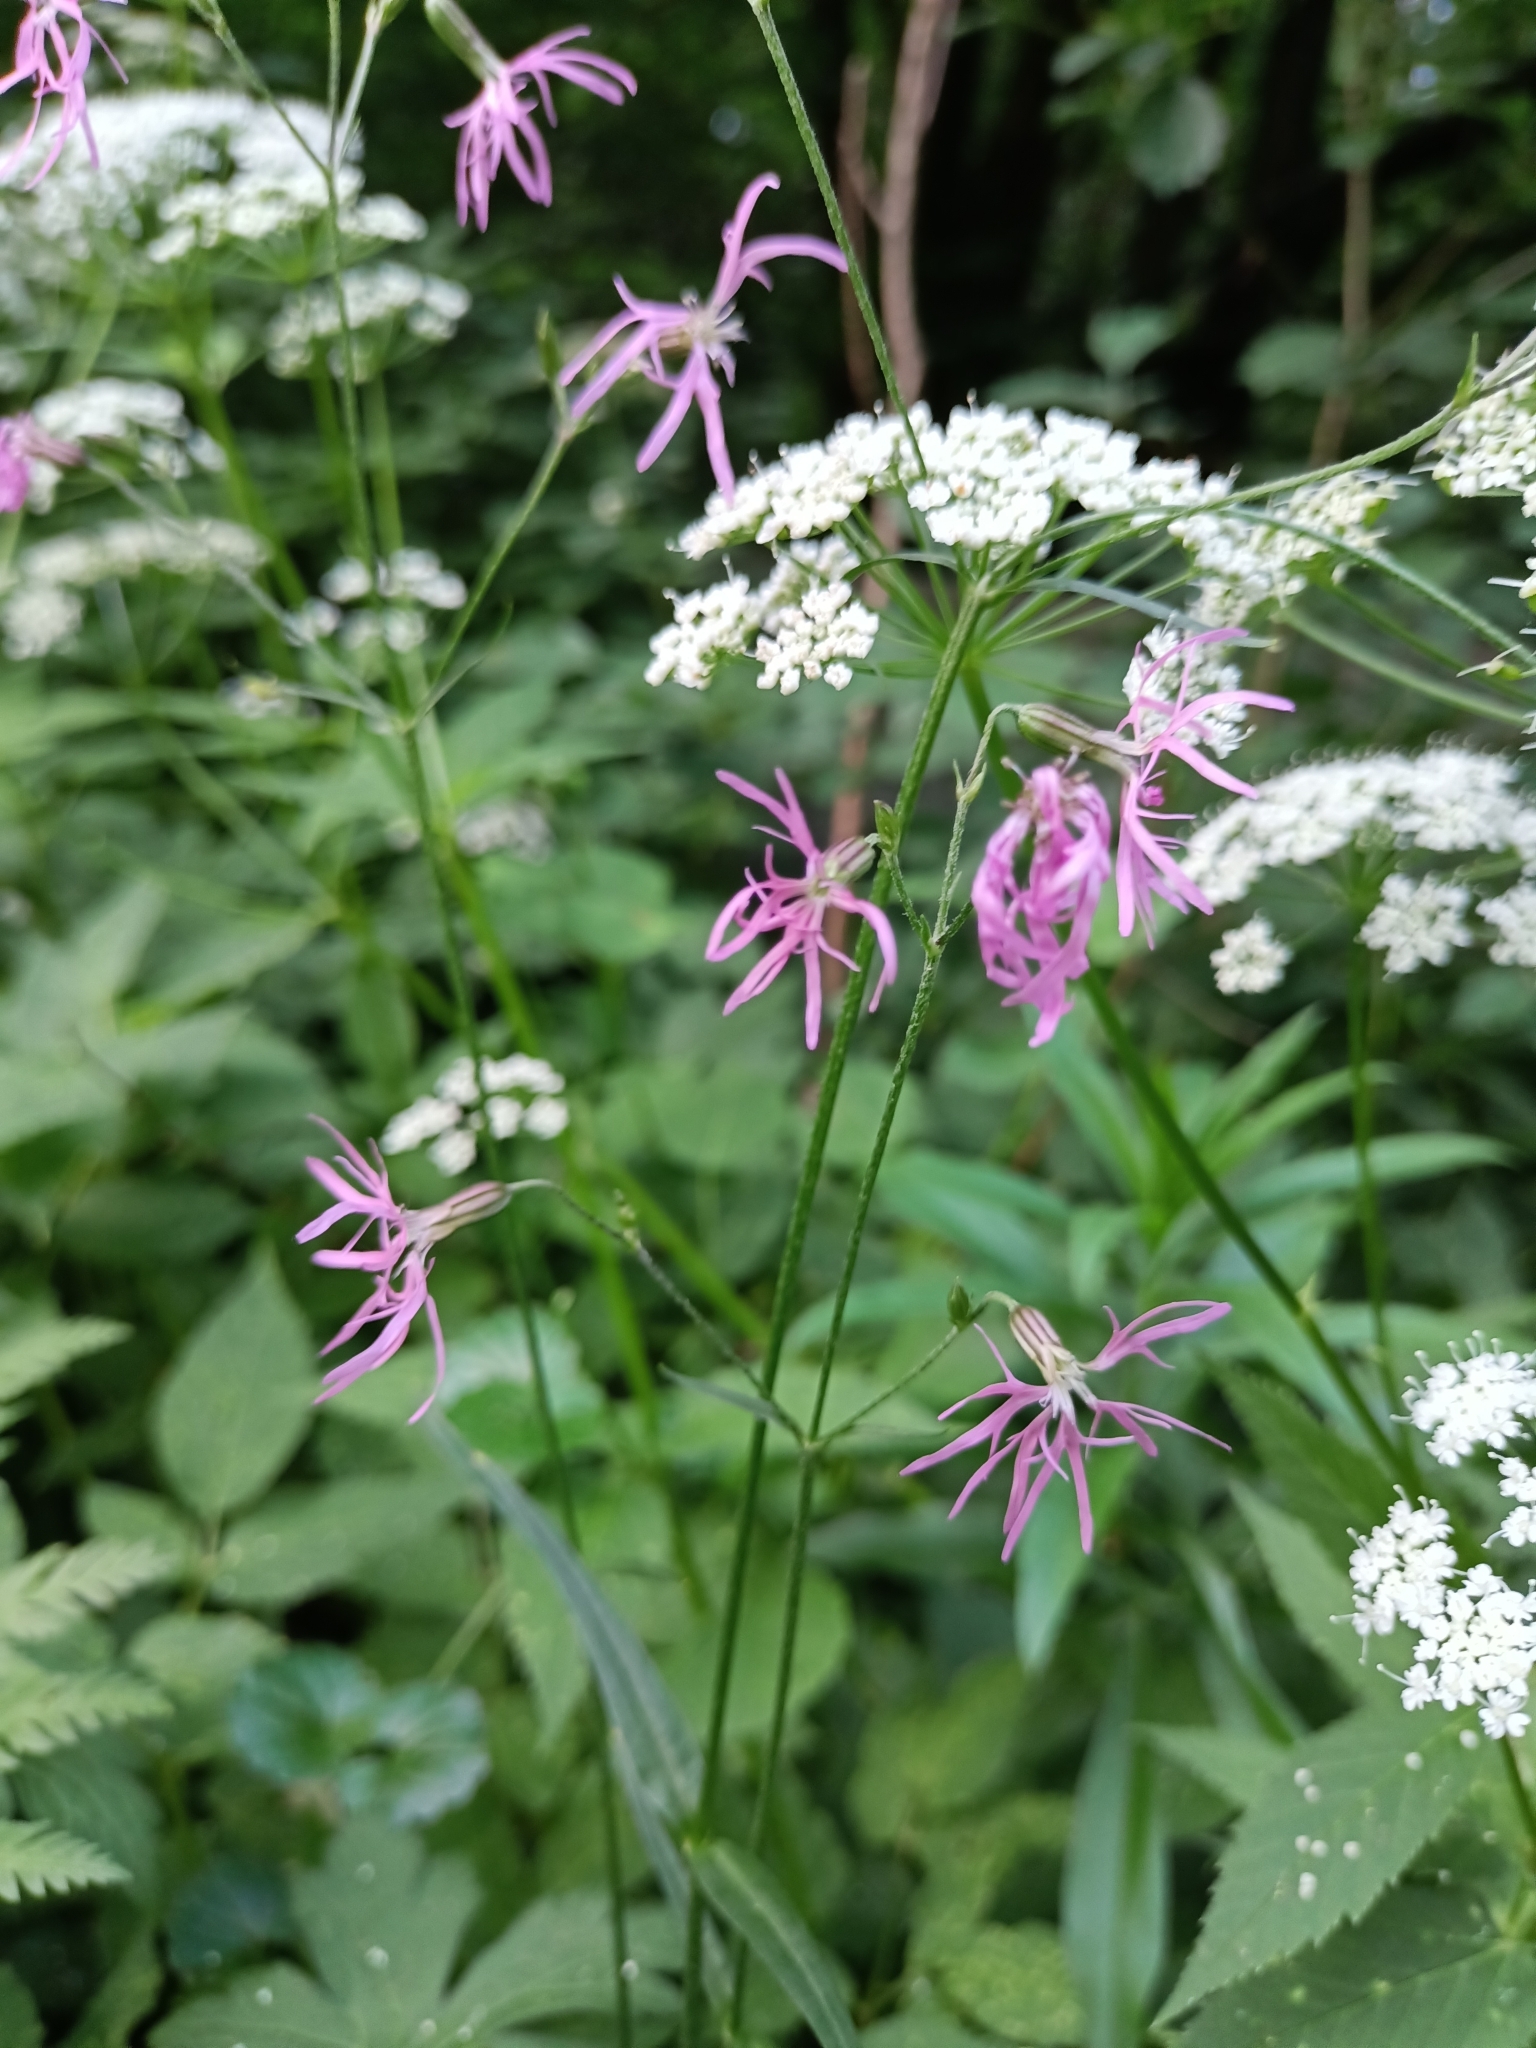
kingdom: Plantae
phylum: Tracheophyta
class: Magnoliopsida
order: Caryophyllales
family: Caryophyllaceae
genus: Silene
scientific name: Silene flos-cuculi
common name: Ragged-robin
